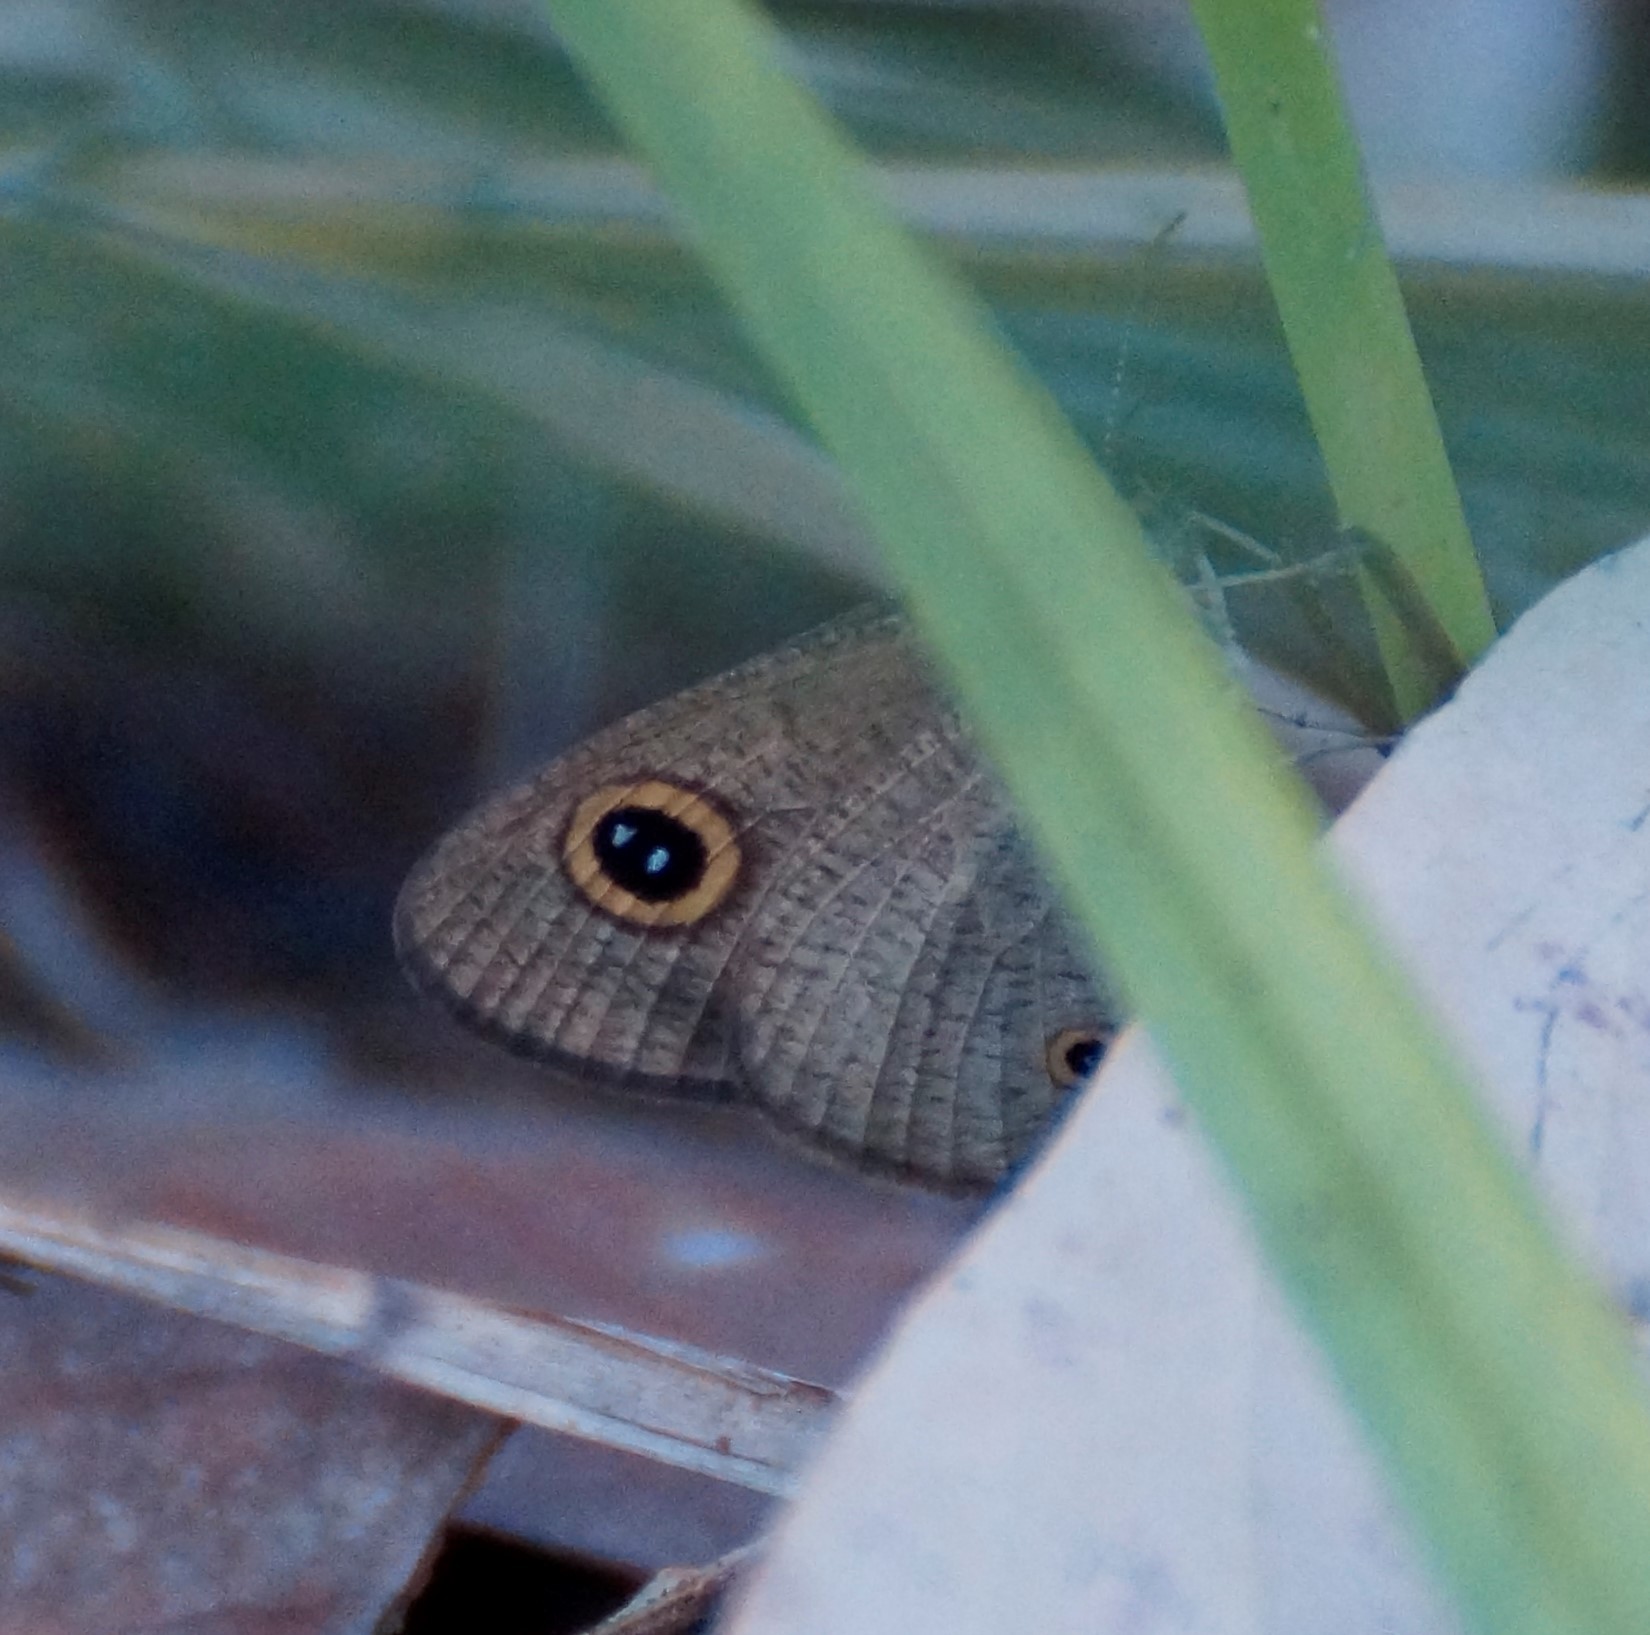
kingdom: Animalia
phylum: Arthropoda
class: Insecta
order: Lepidoptera
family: Nymphalidae
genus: Ypthima
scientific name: Ypthima arctous
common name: Dusky knight
